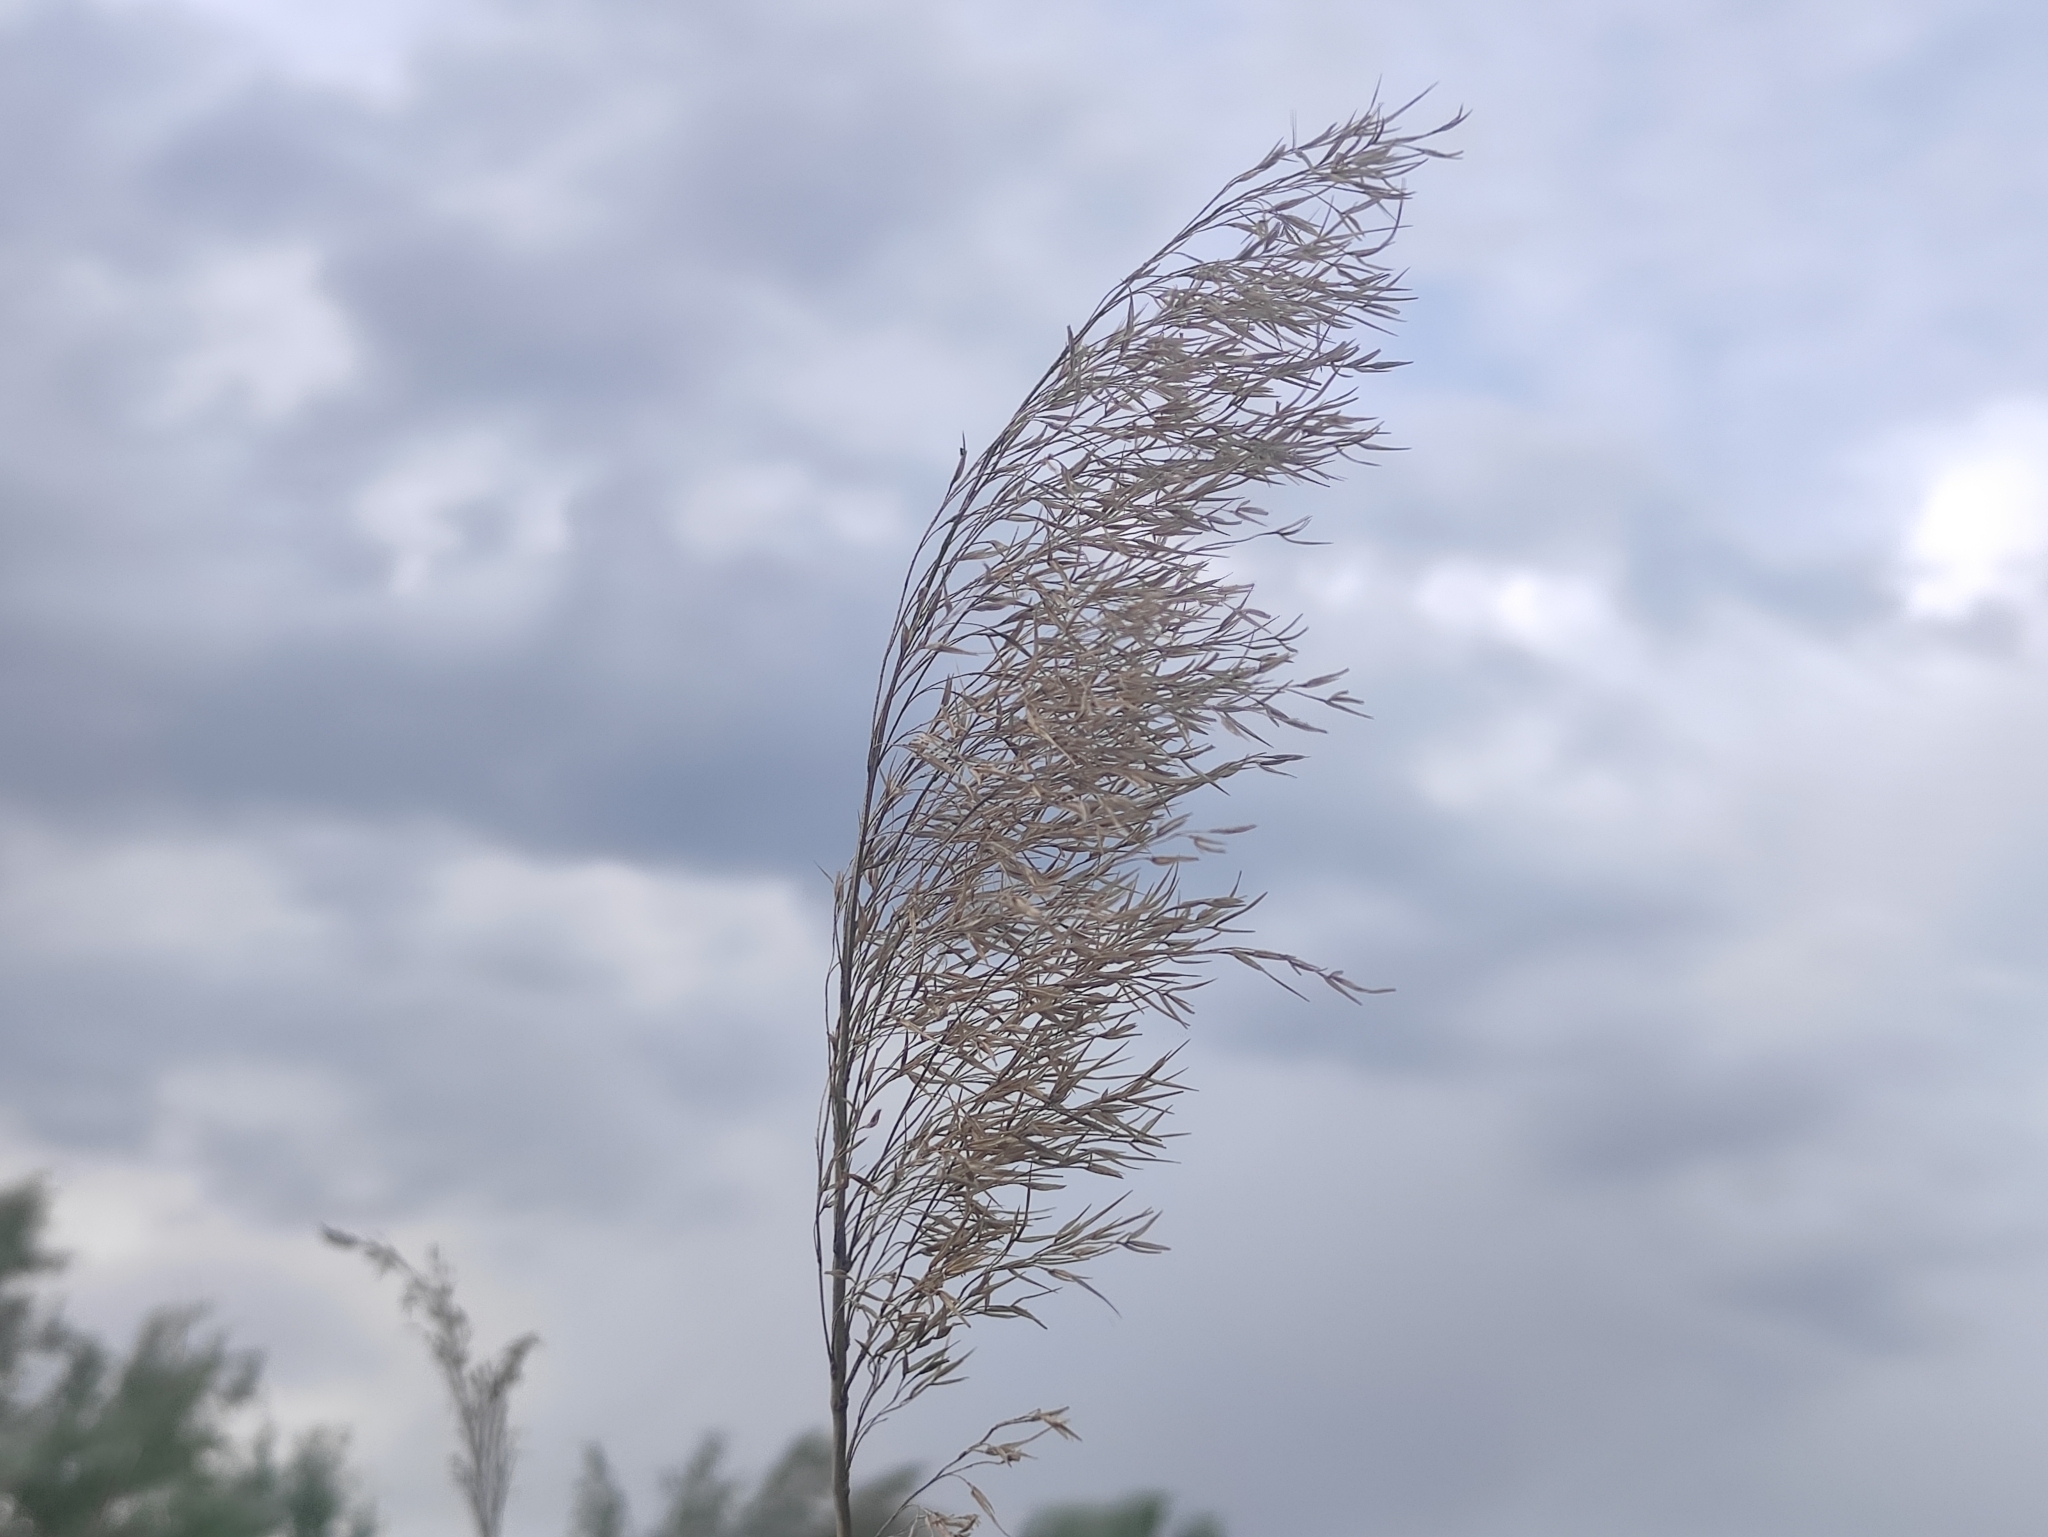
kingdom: Plantae
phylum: Tracheophyta
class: Liliopsida
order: Poales
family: Poaceae
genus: Phragmites
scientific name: Phragmites australis
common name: Common reed
